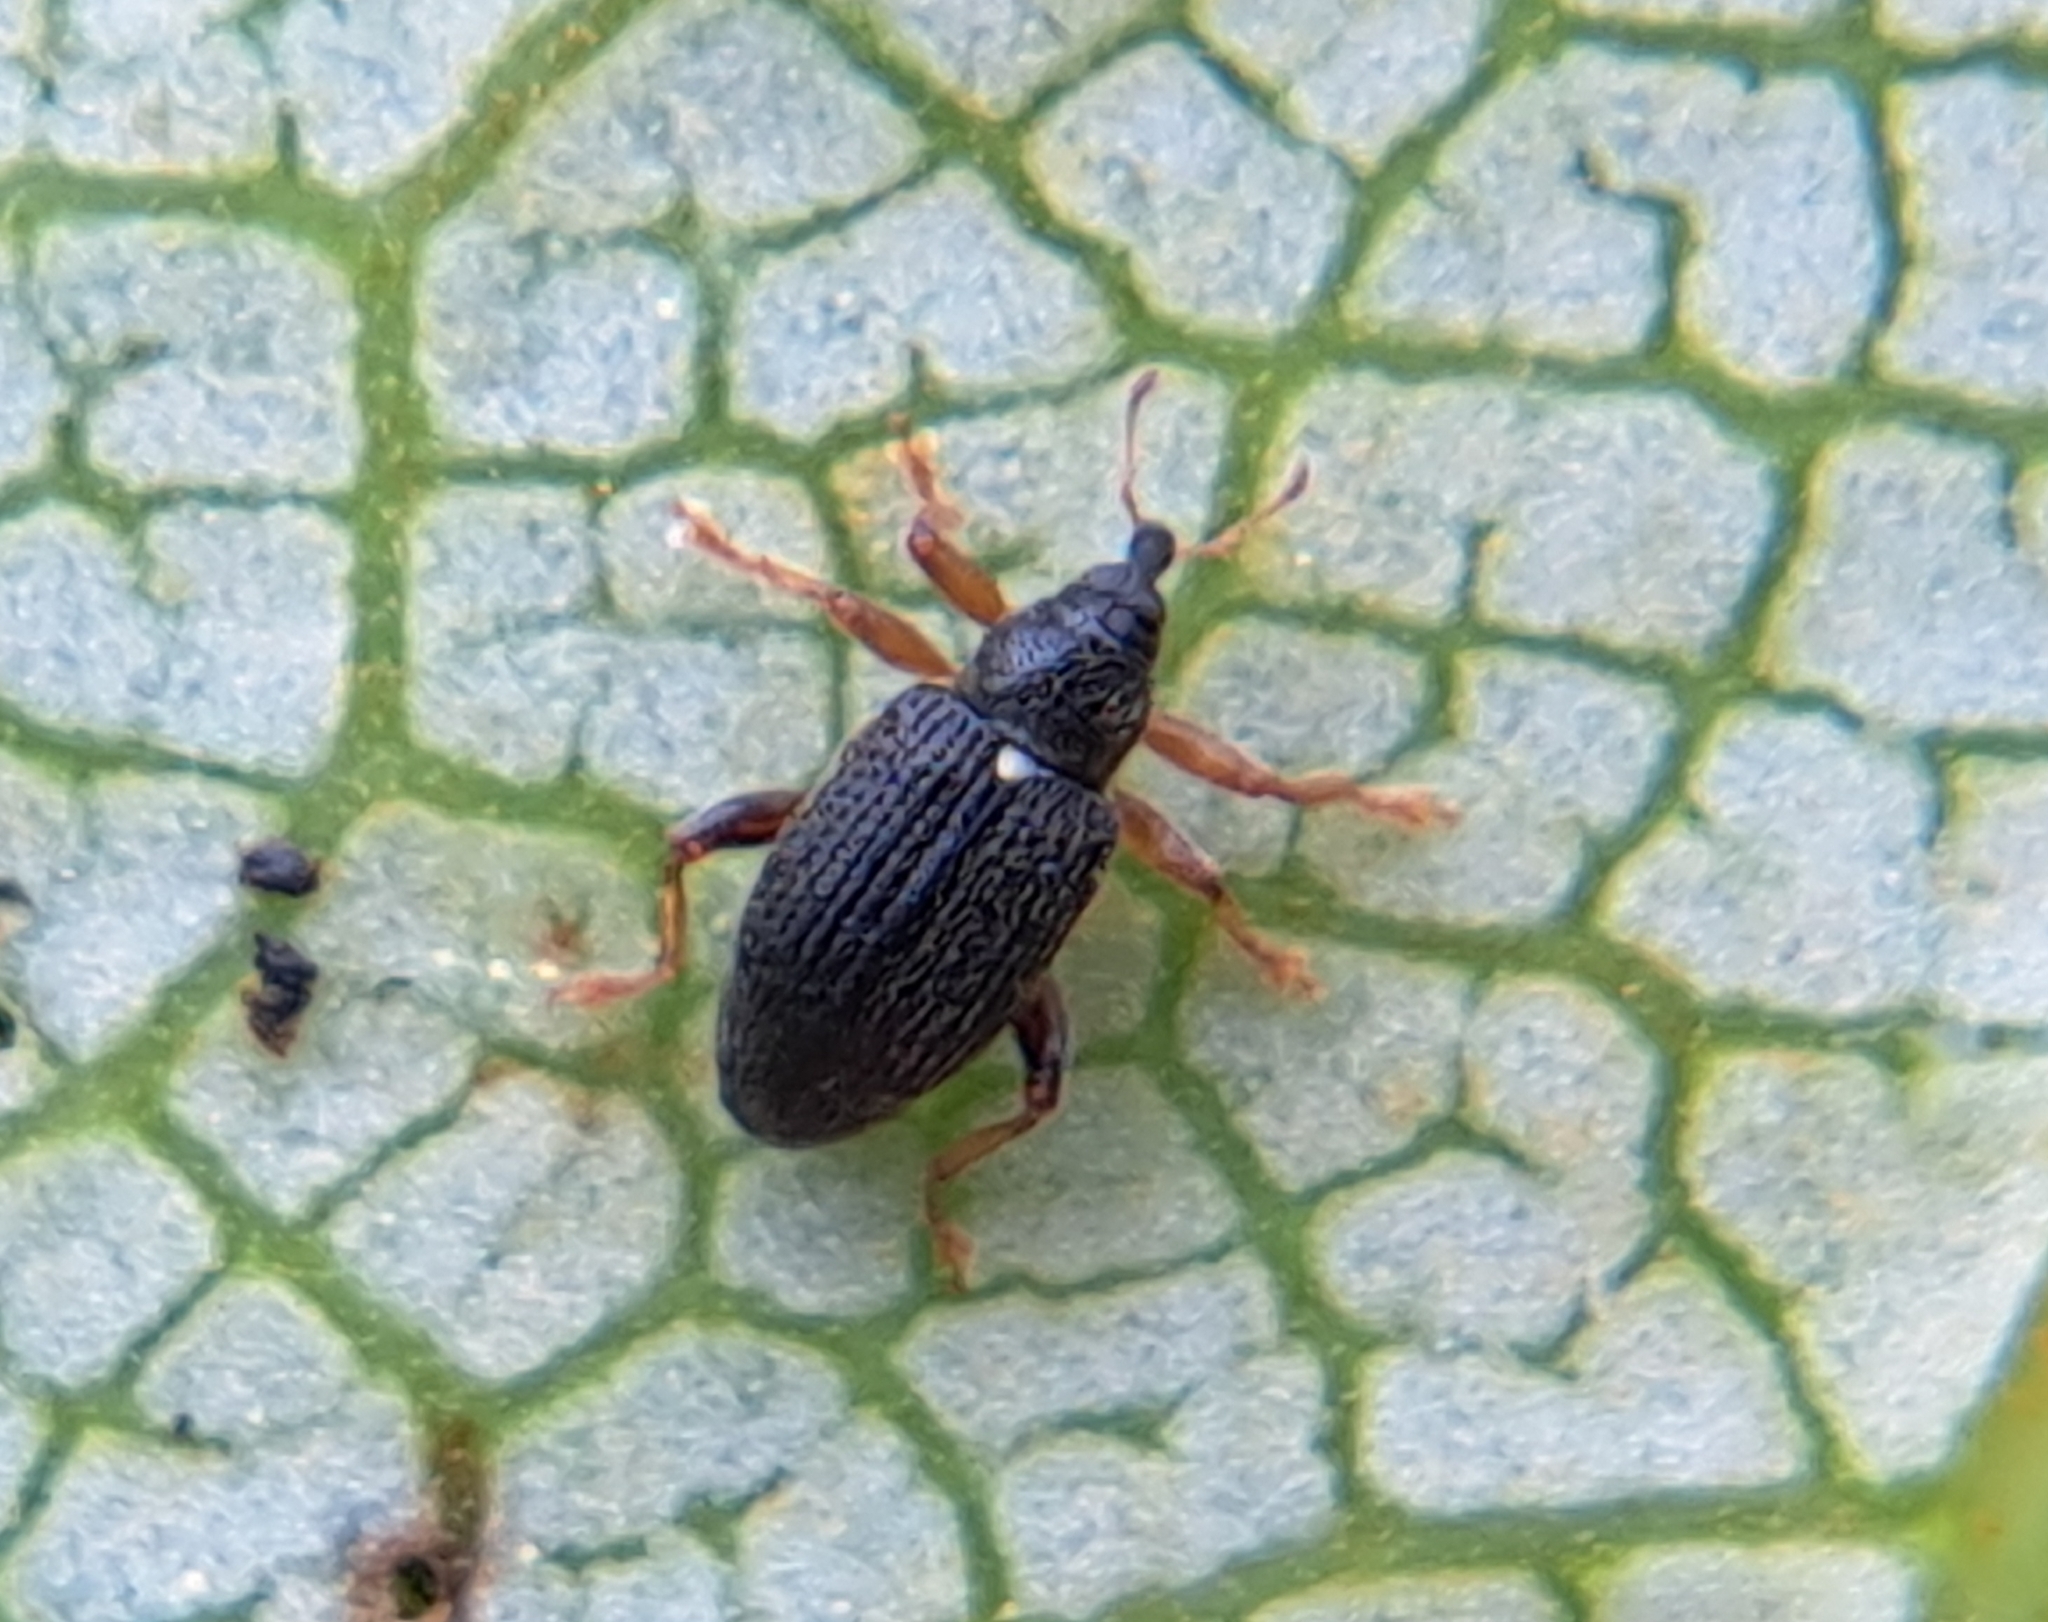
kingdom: Animalia
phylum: Arthropoda
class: Insecta
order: Coleoptera
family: Curculionidae
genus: Isochnus
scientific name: Isochnus sequensi
